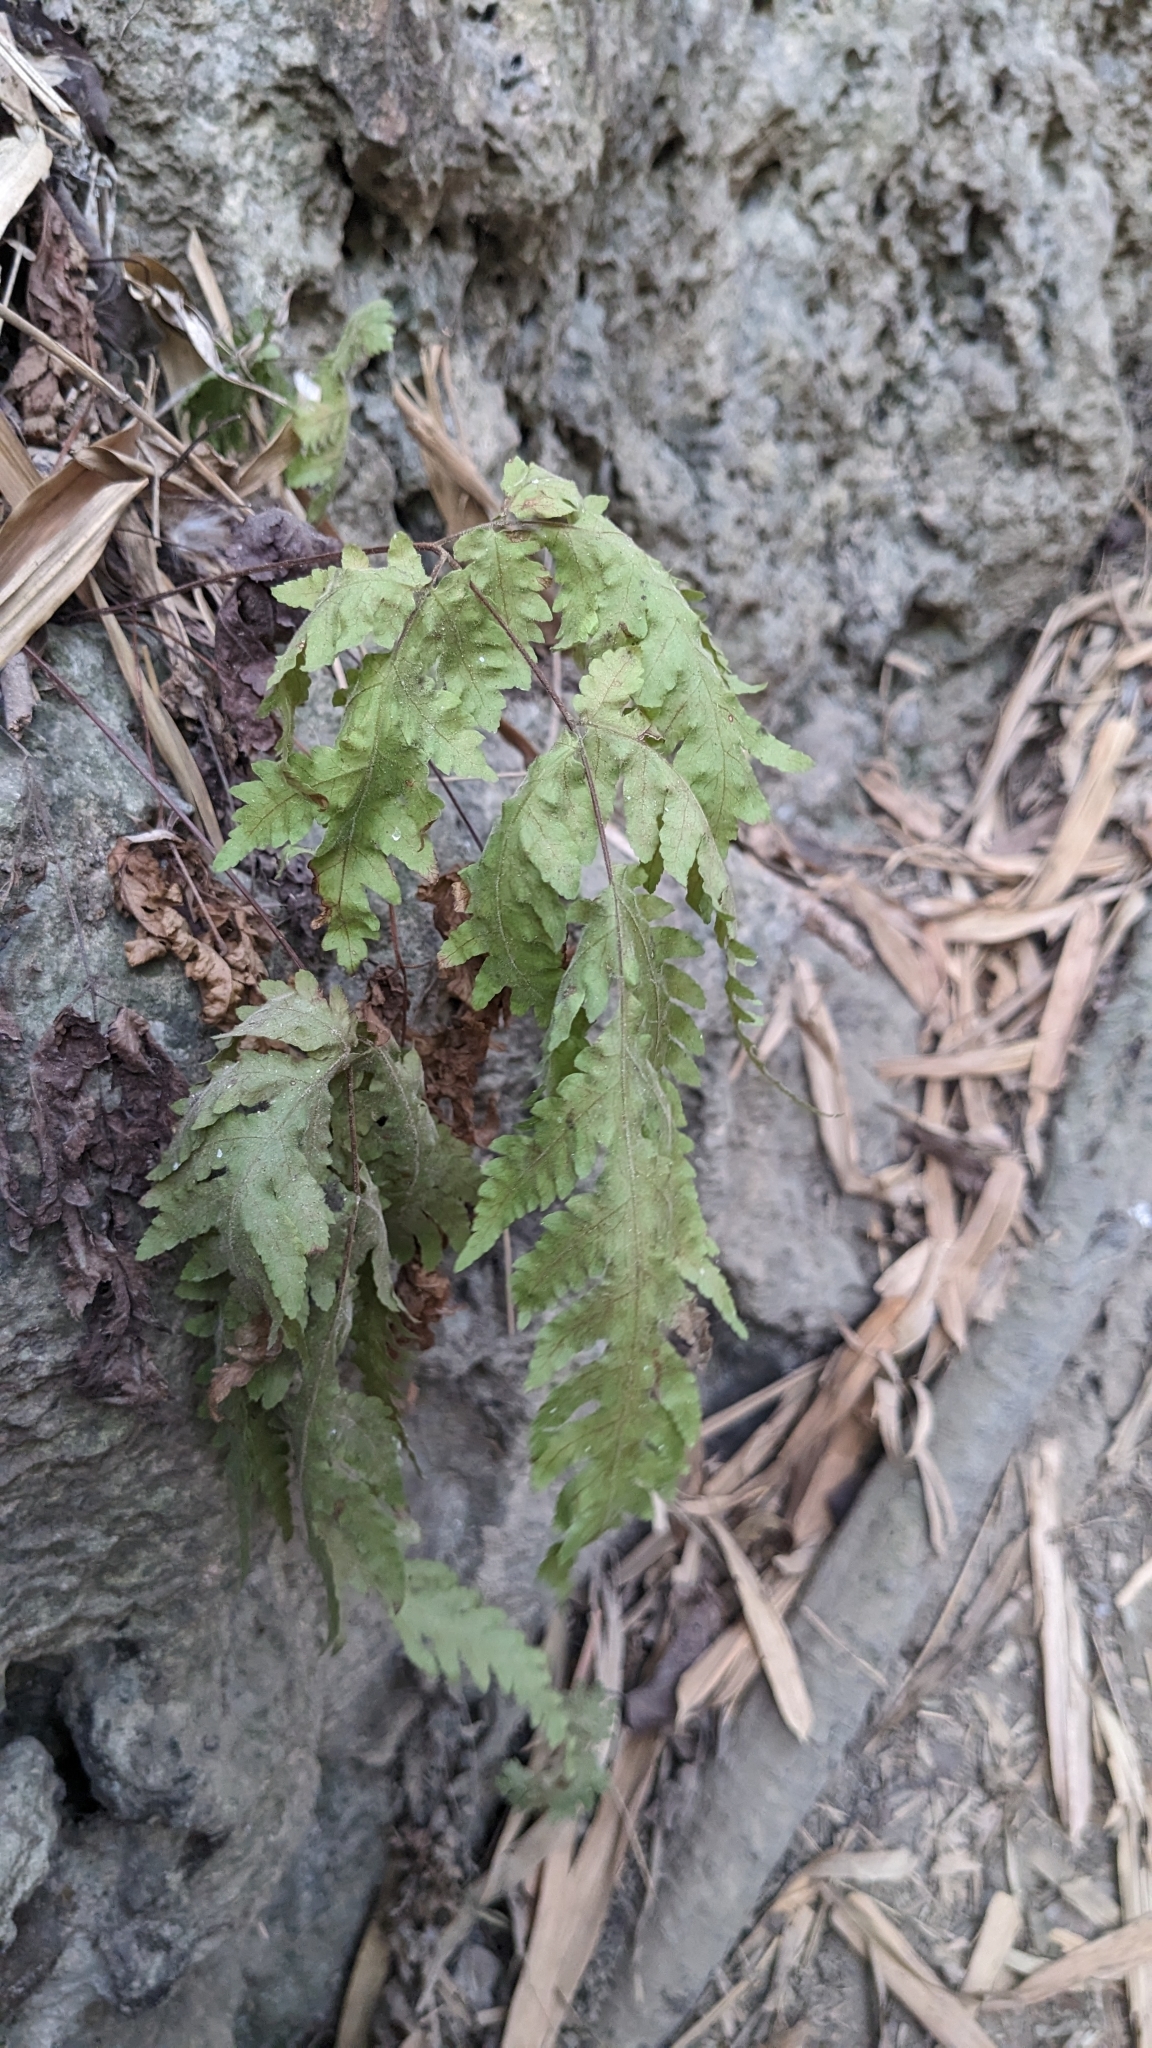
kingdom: Plantae
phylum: Tracheophyta
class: Polypodiopsida
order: Polypodiales
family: Tectariaceae
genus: Tectaria
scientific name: Tectaria membranacea
